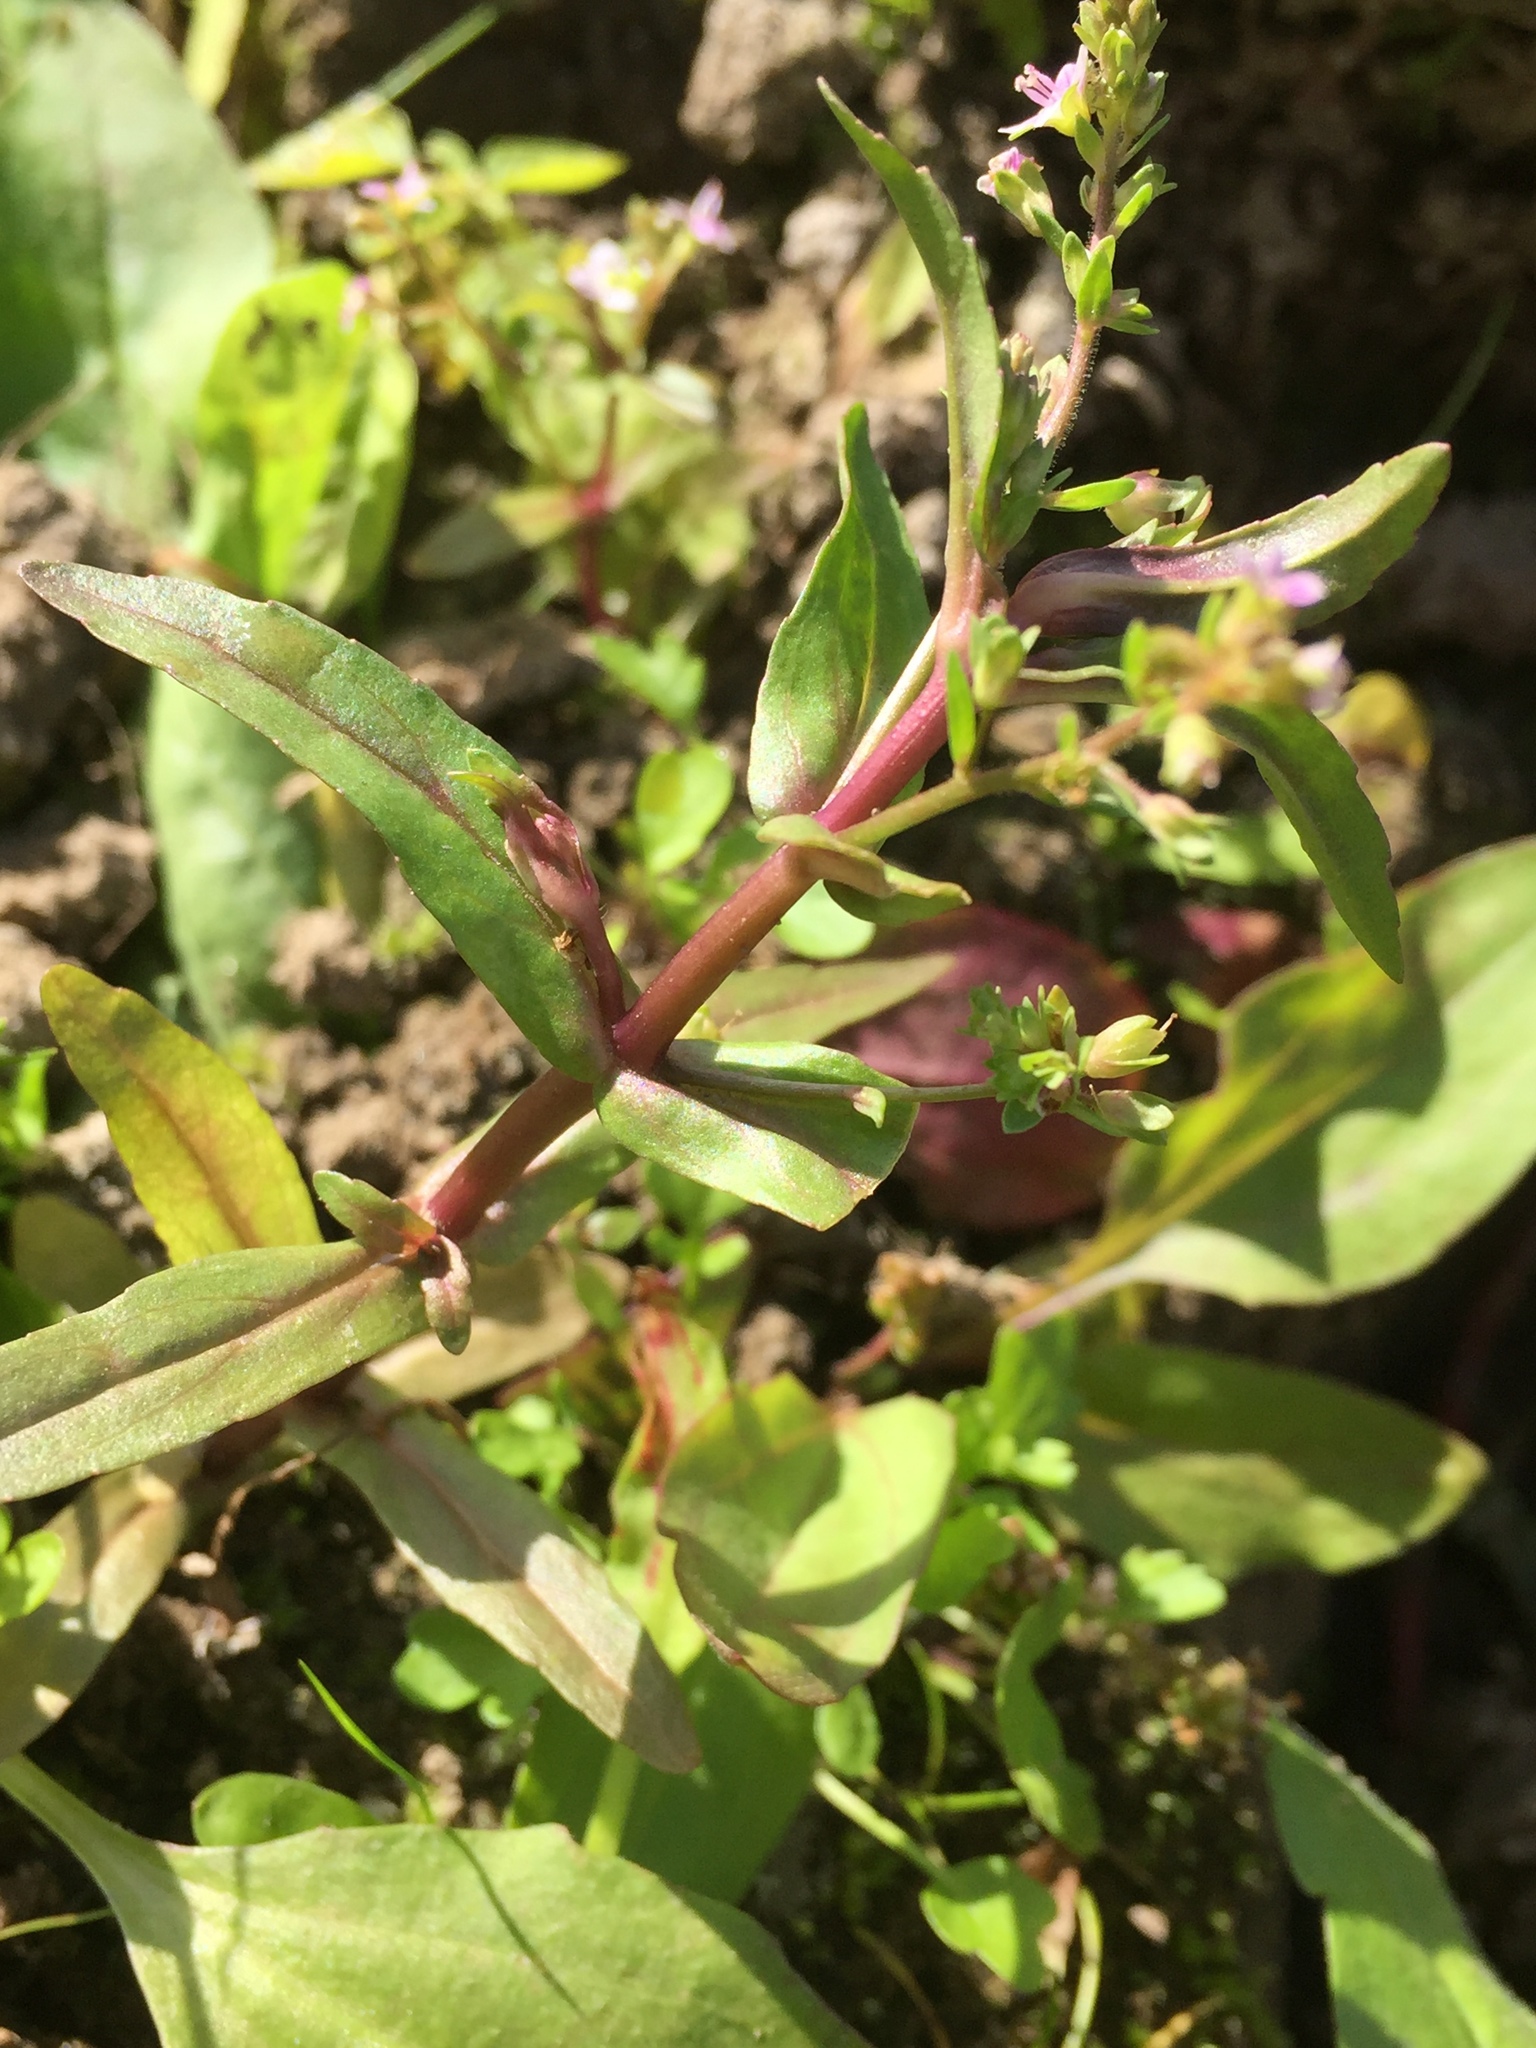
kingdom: Plantae
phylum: Tracheophyta
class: Magnoliopsida
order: Lamiales
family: Plantaginaceae
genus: Veronica
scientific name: Veronica catenata
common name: Pink water-speedwell
